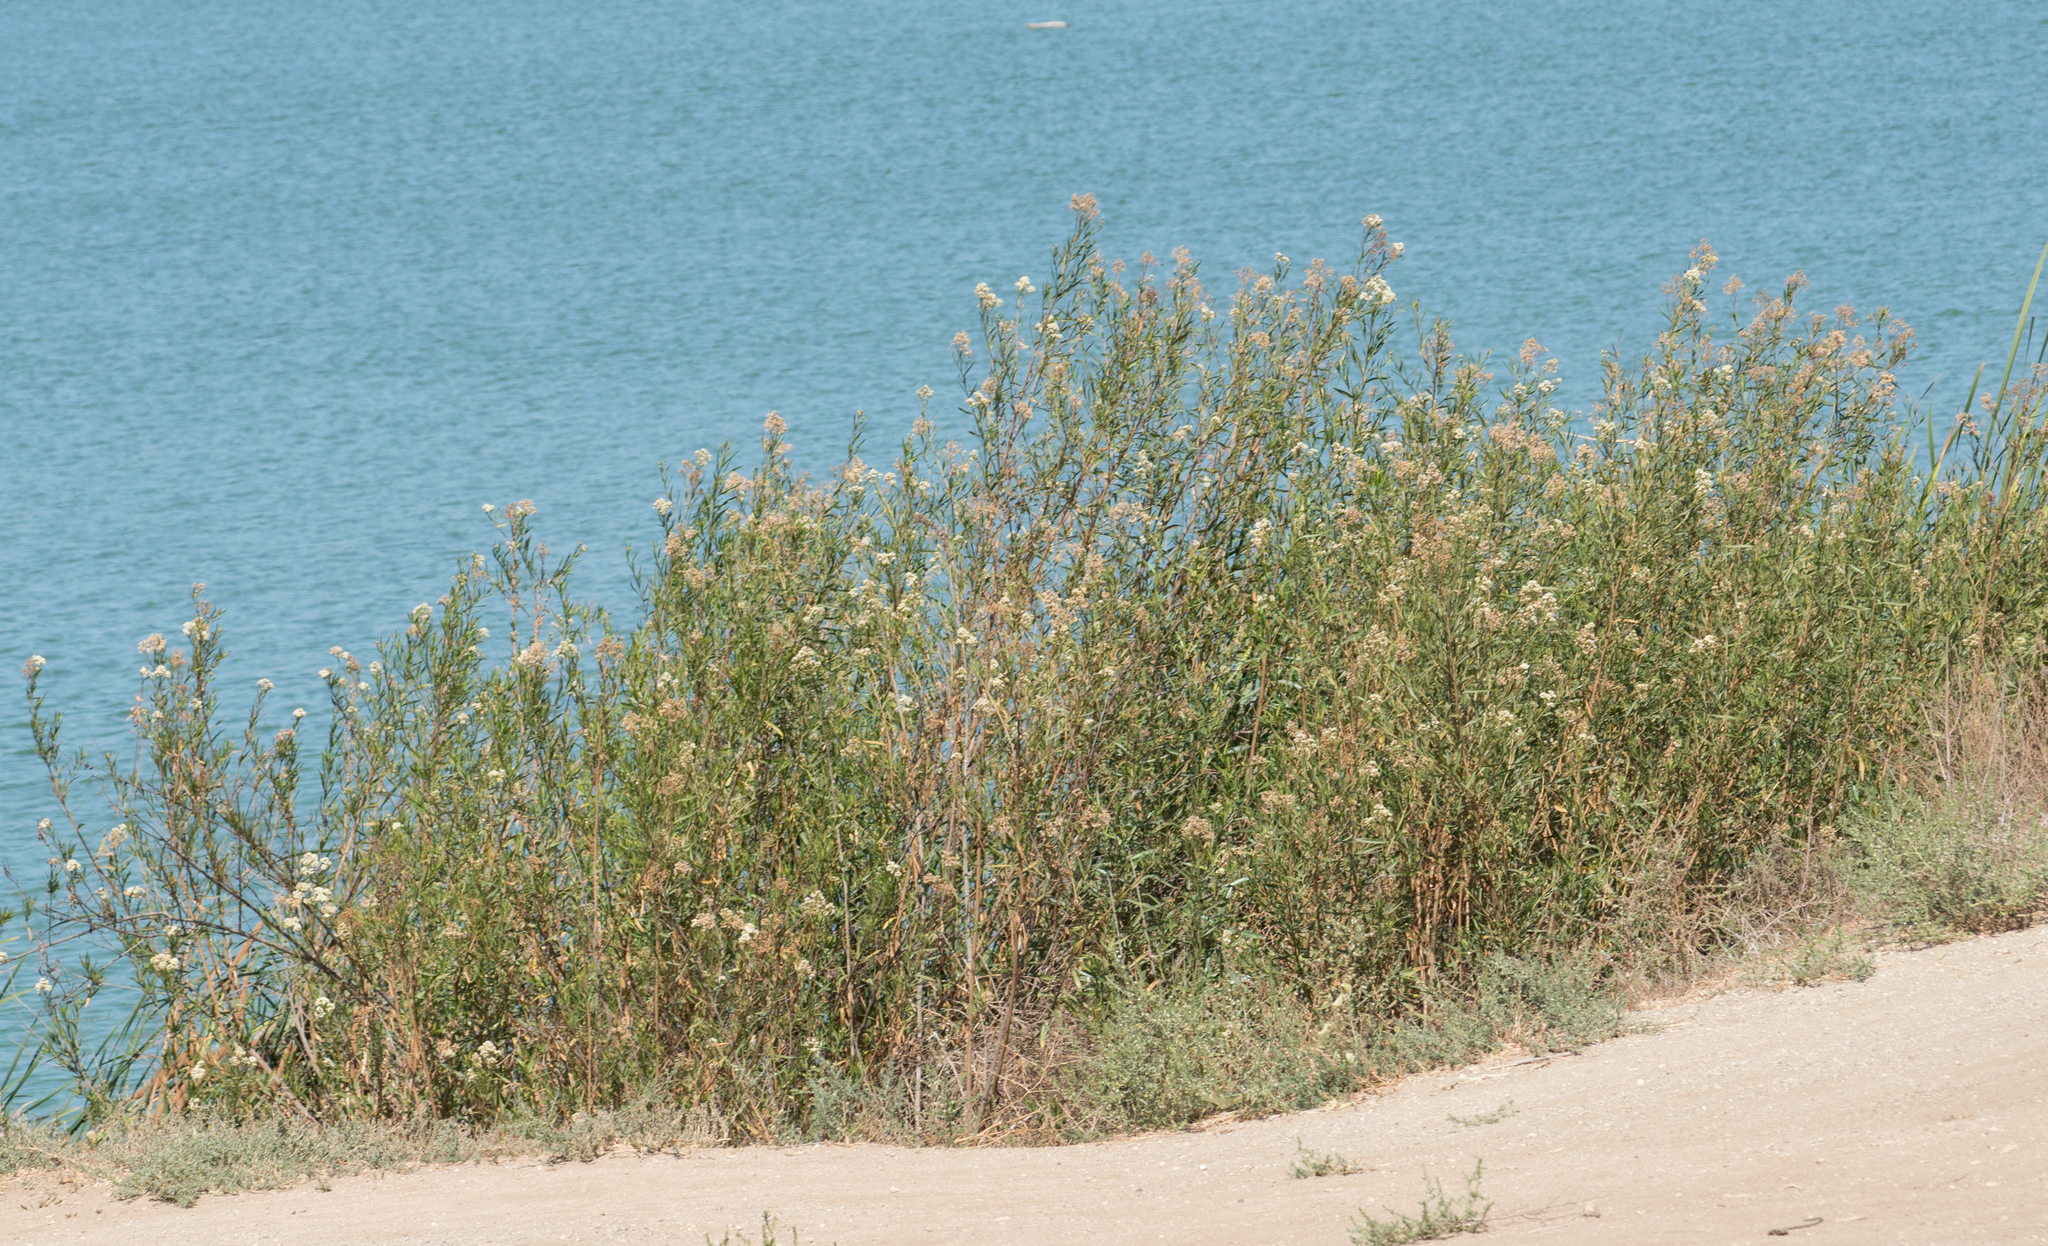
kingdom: Plantae
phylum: Tracheophyta
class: Magnoliopsida
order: Asterales
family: Asteraceae
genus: Baccharis
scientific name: Baccharis salicifolia
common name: Sticky baccharis
